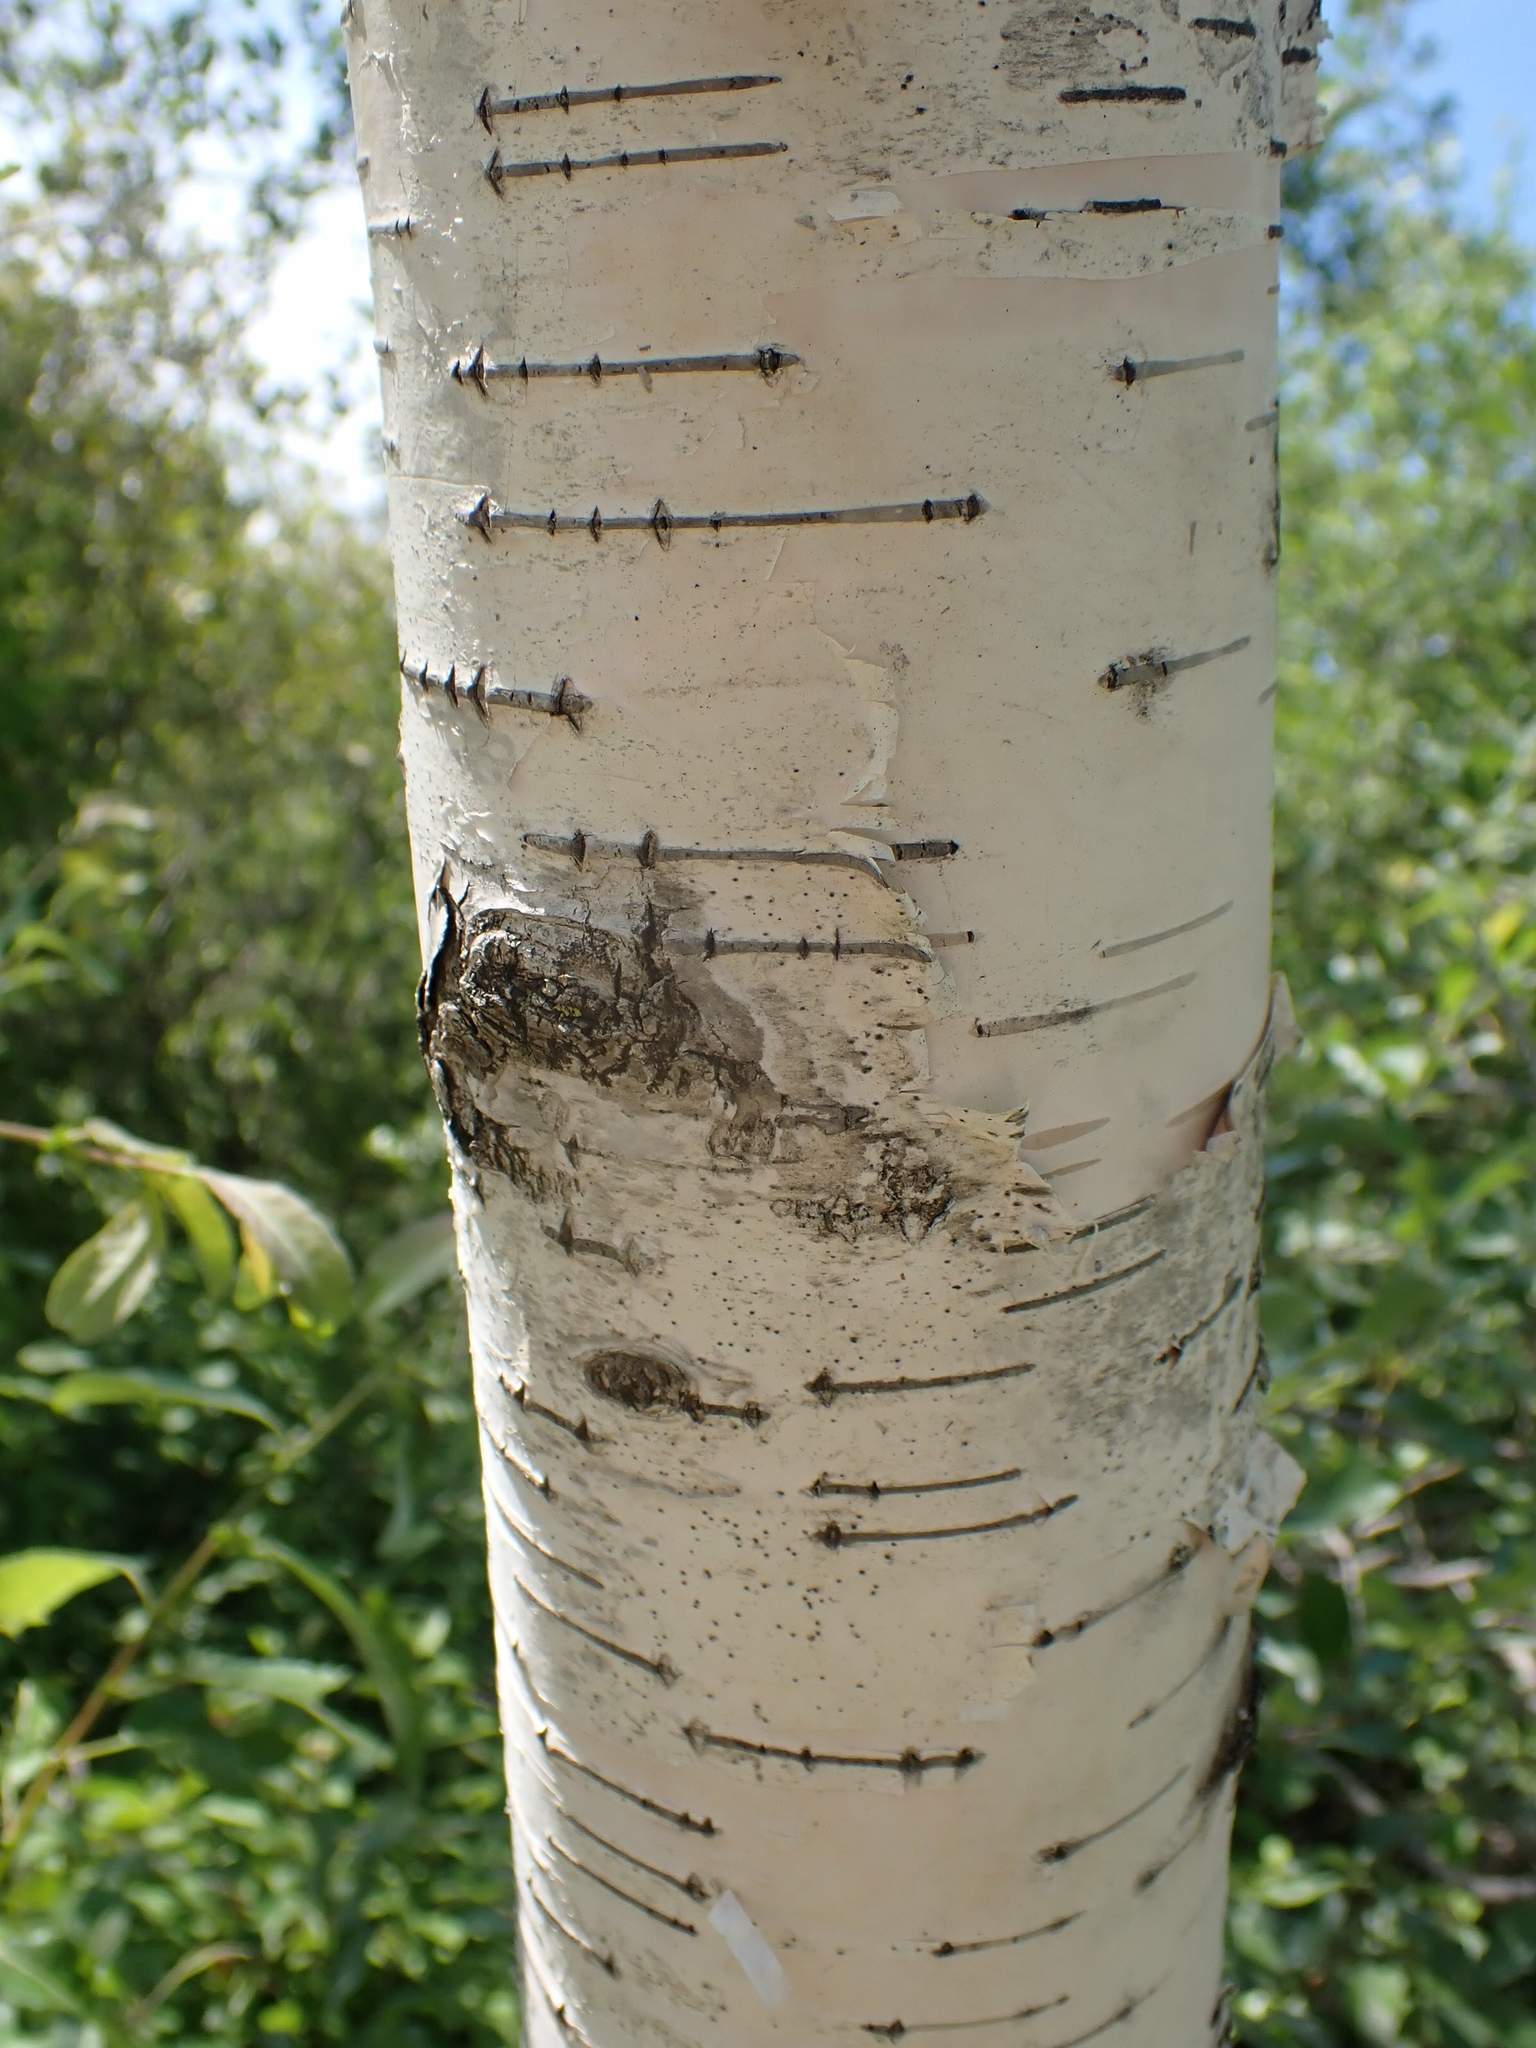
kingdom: Plantae
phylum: Tracheophyta
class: Magnoliopsida
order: Fagales
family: Betulaceae
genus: Betula
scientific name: Betula papyrifera
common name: Paper birch
